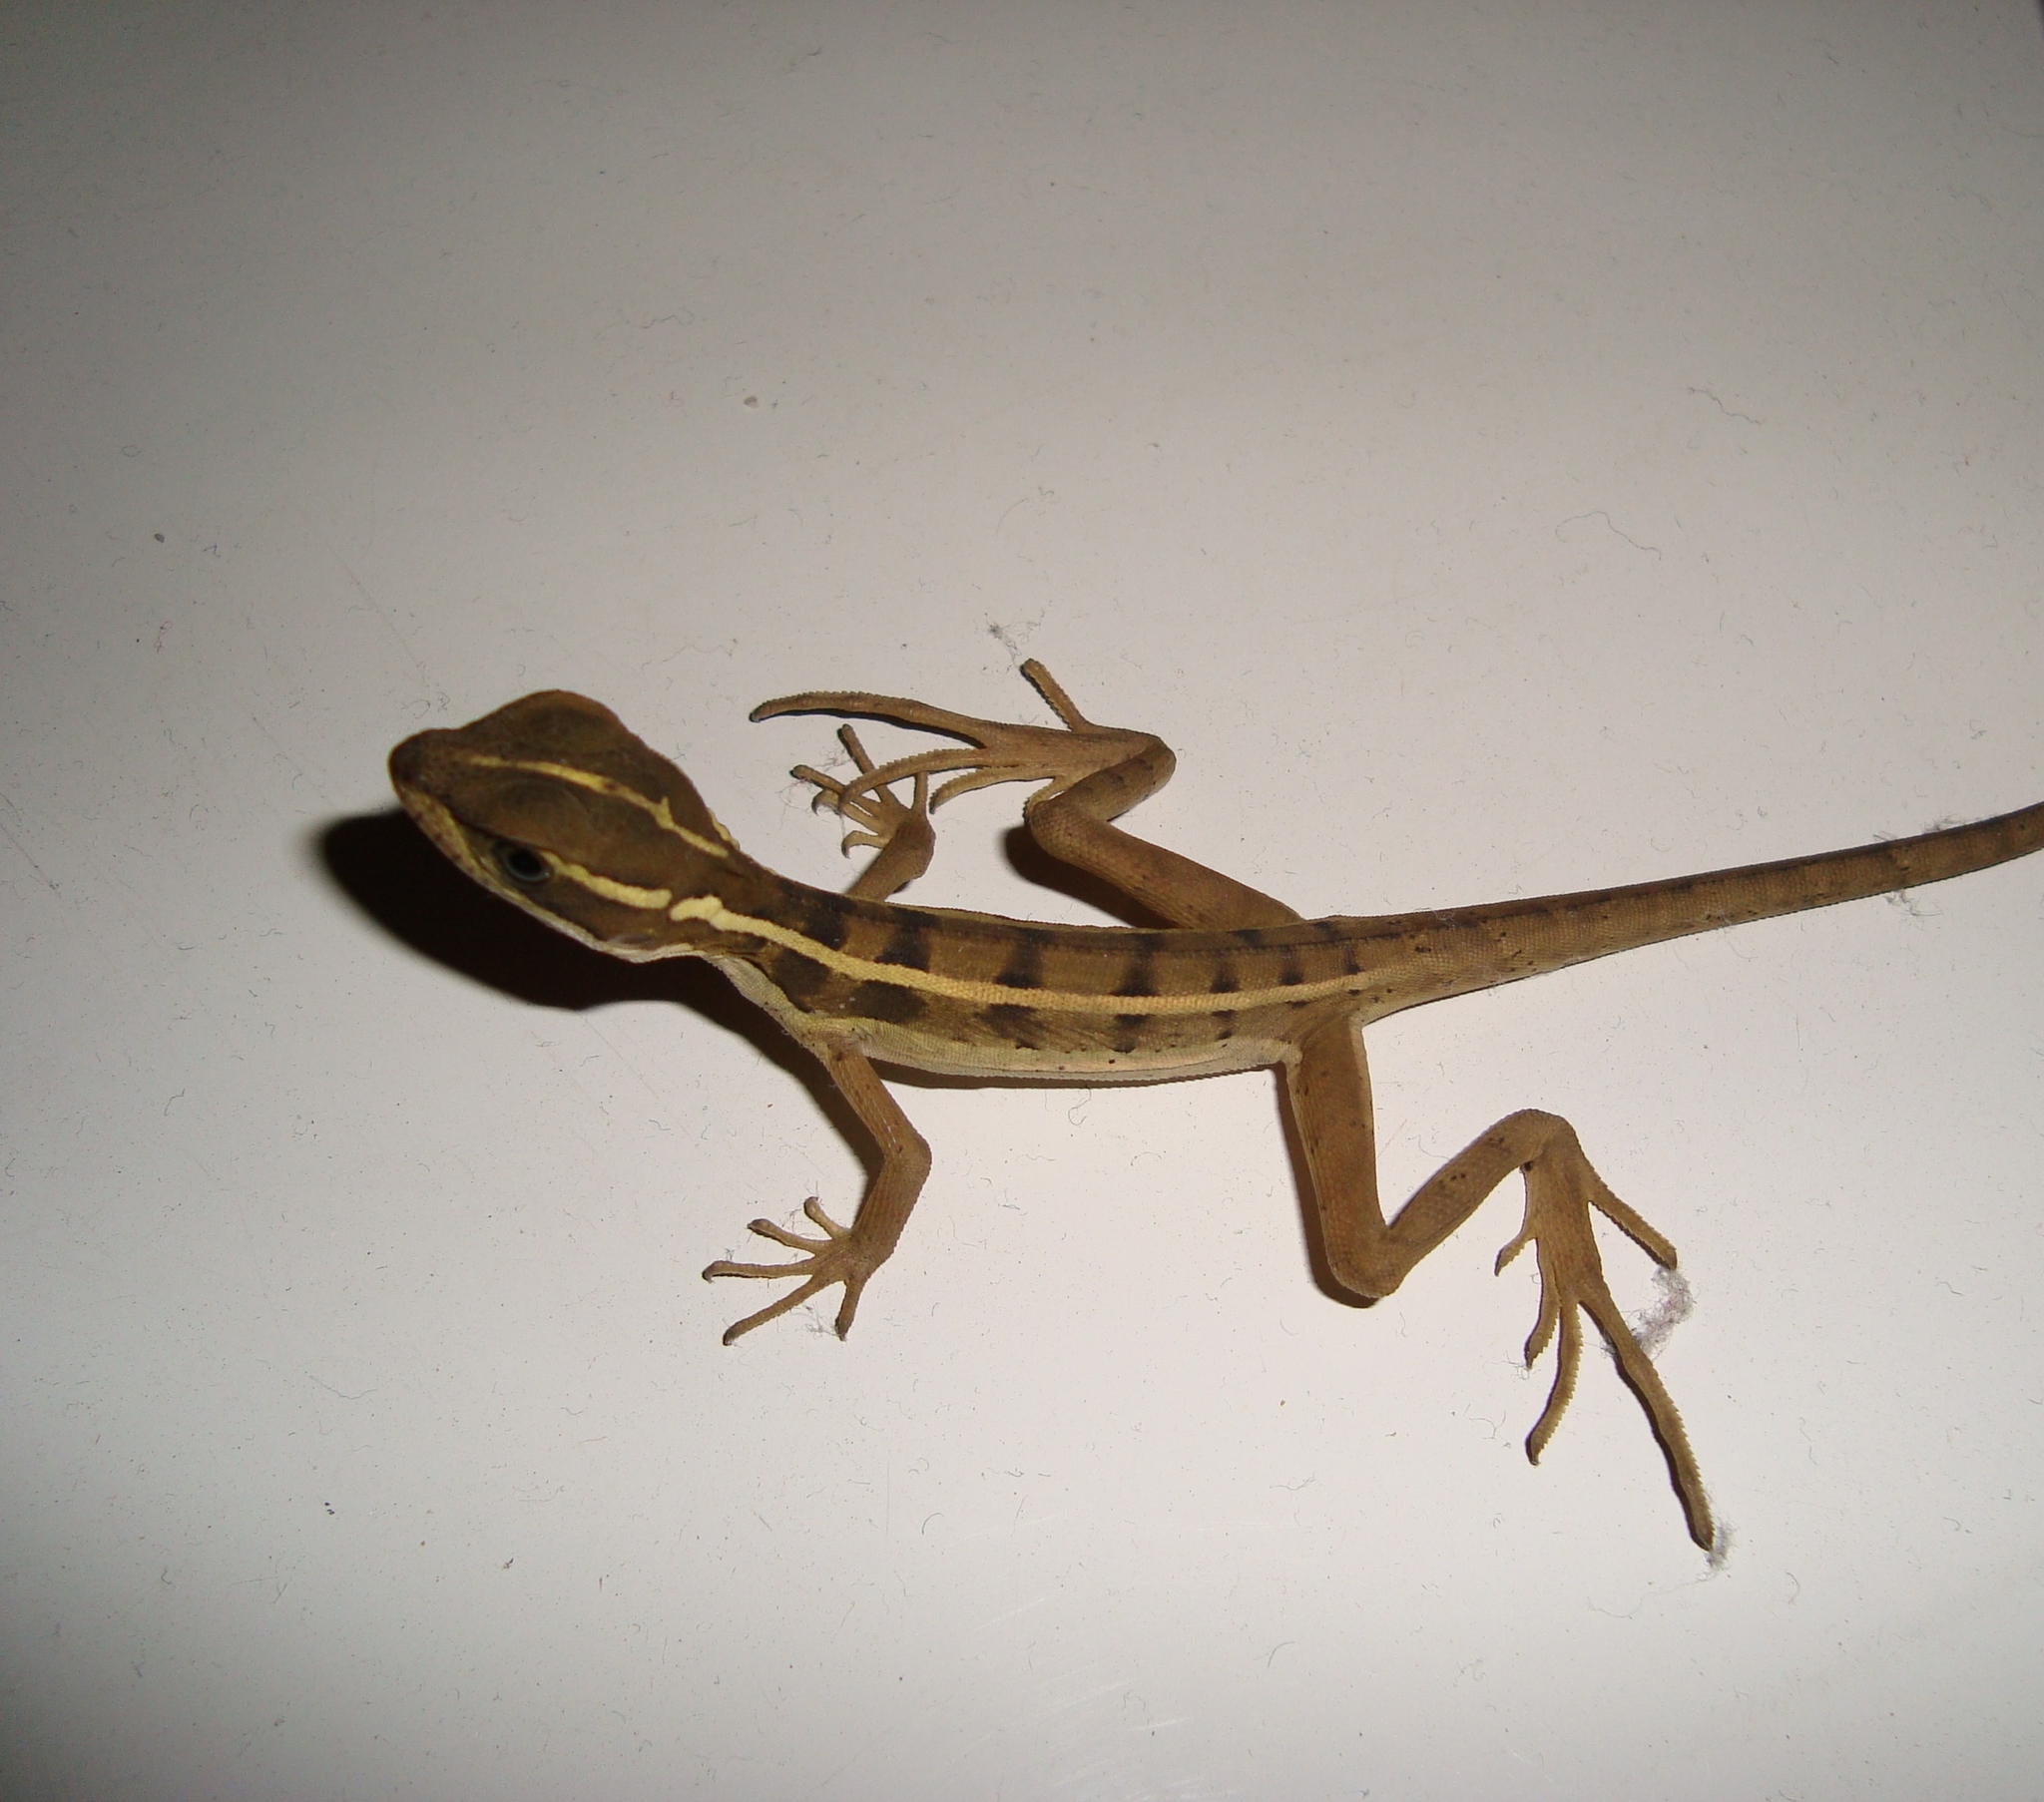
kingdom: Animalia
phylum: Chordata
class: Squamata
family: Corytophanidae
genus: Basiliscus
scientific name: Basiliscus vittatus
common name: Brown basilisk
